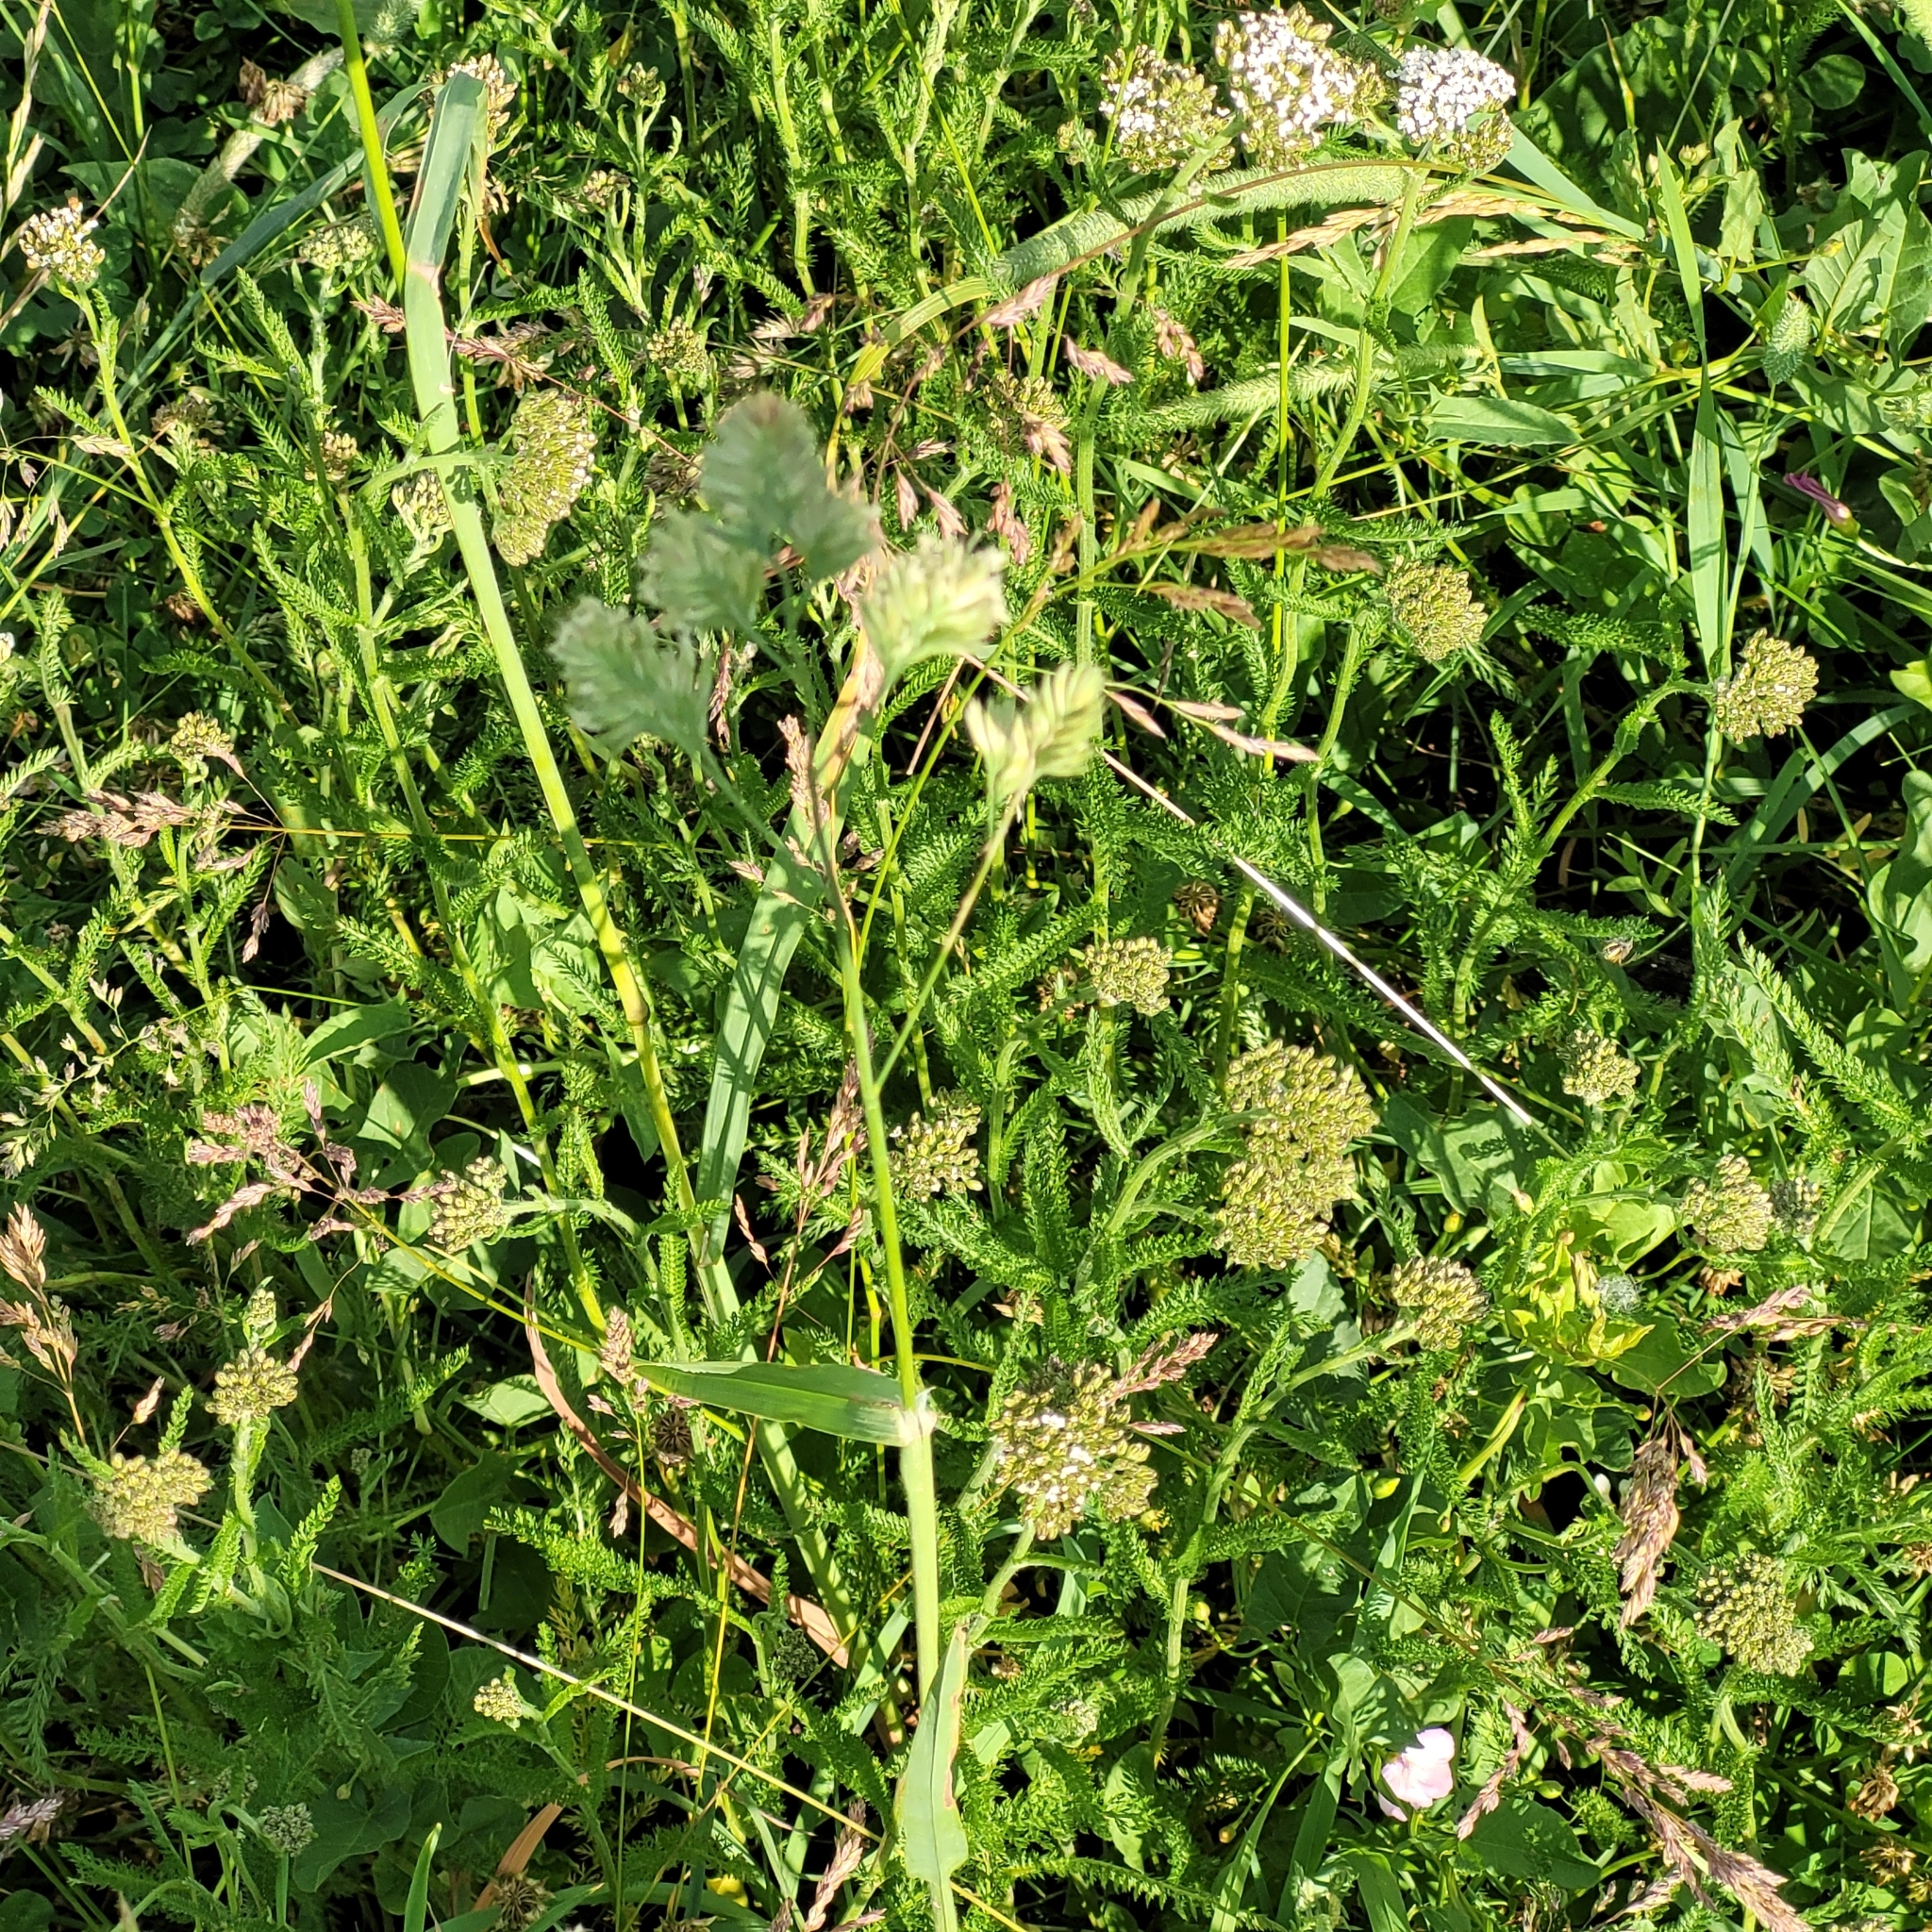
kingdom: Plantae
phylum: Tracheophyta
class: Liliopsida
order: Poales
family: Poaceae
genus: Dactylis
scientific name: Dactylis glomerata
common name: Orchardgrass
